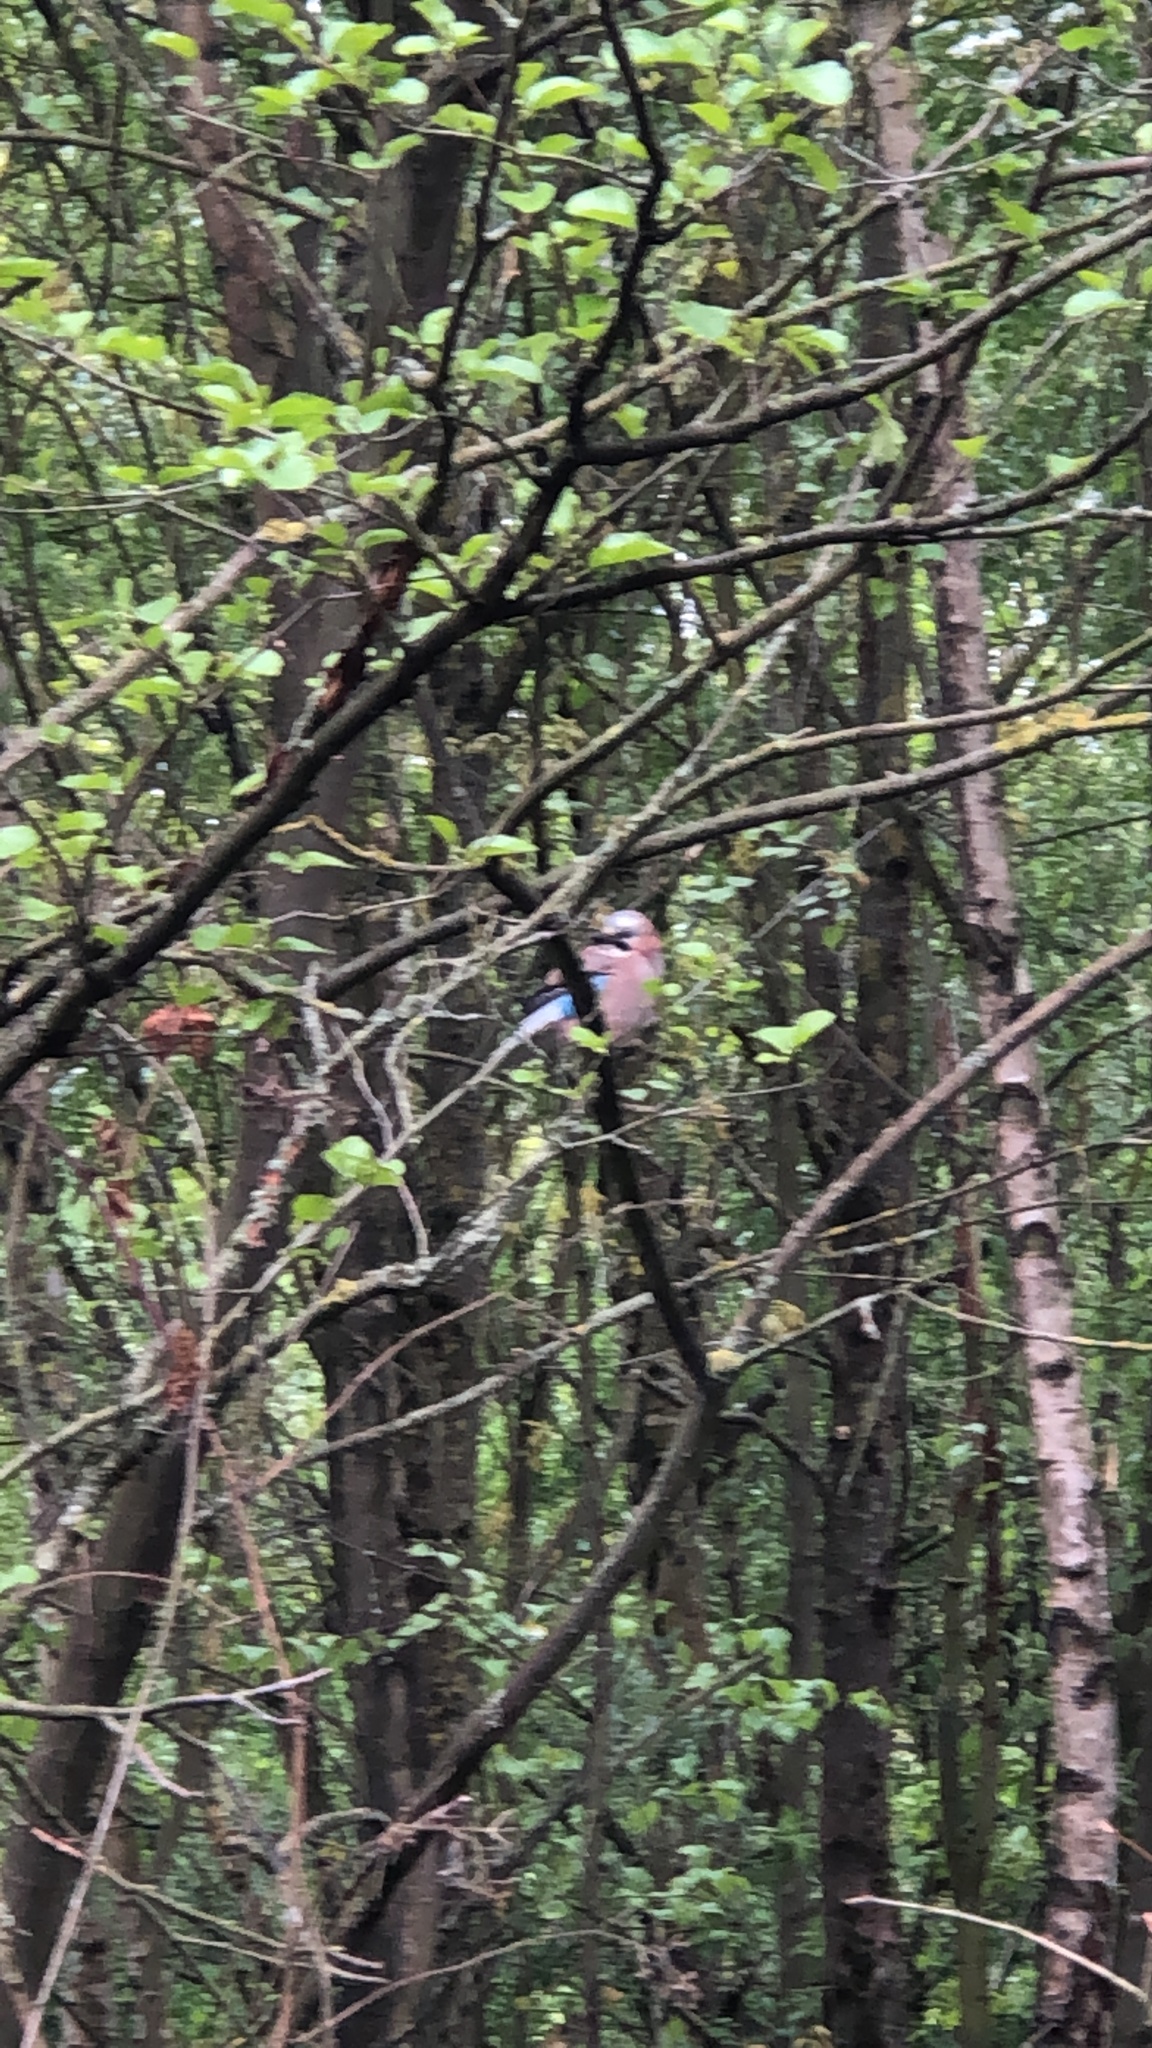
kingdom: Animalia
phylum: Chordata
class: Aves
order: Passeriformes
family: Corvidae
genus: Garrulus
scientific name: Garrulus glandarius
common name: Eurasian jay
